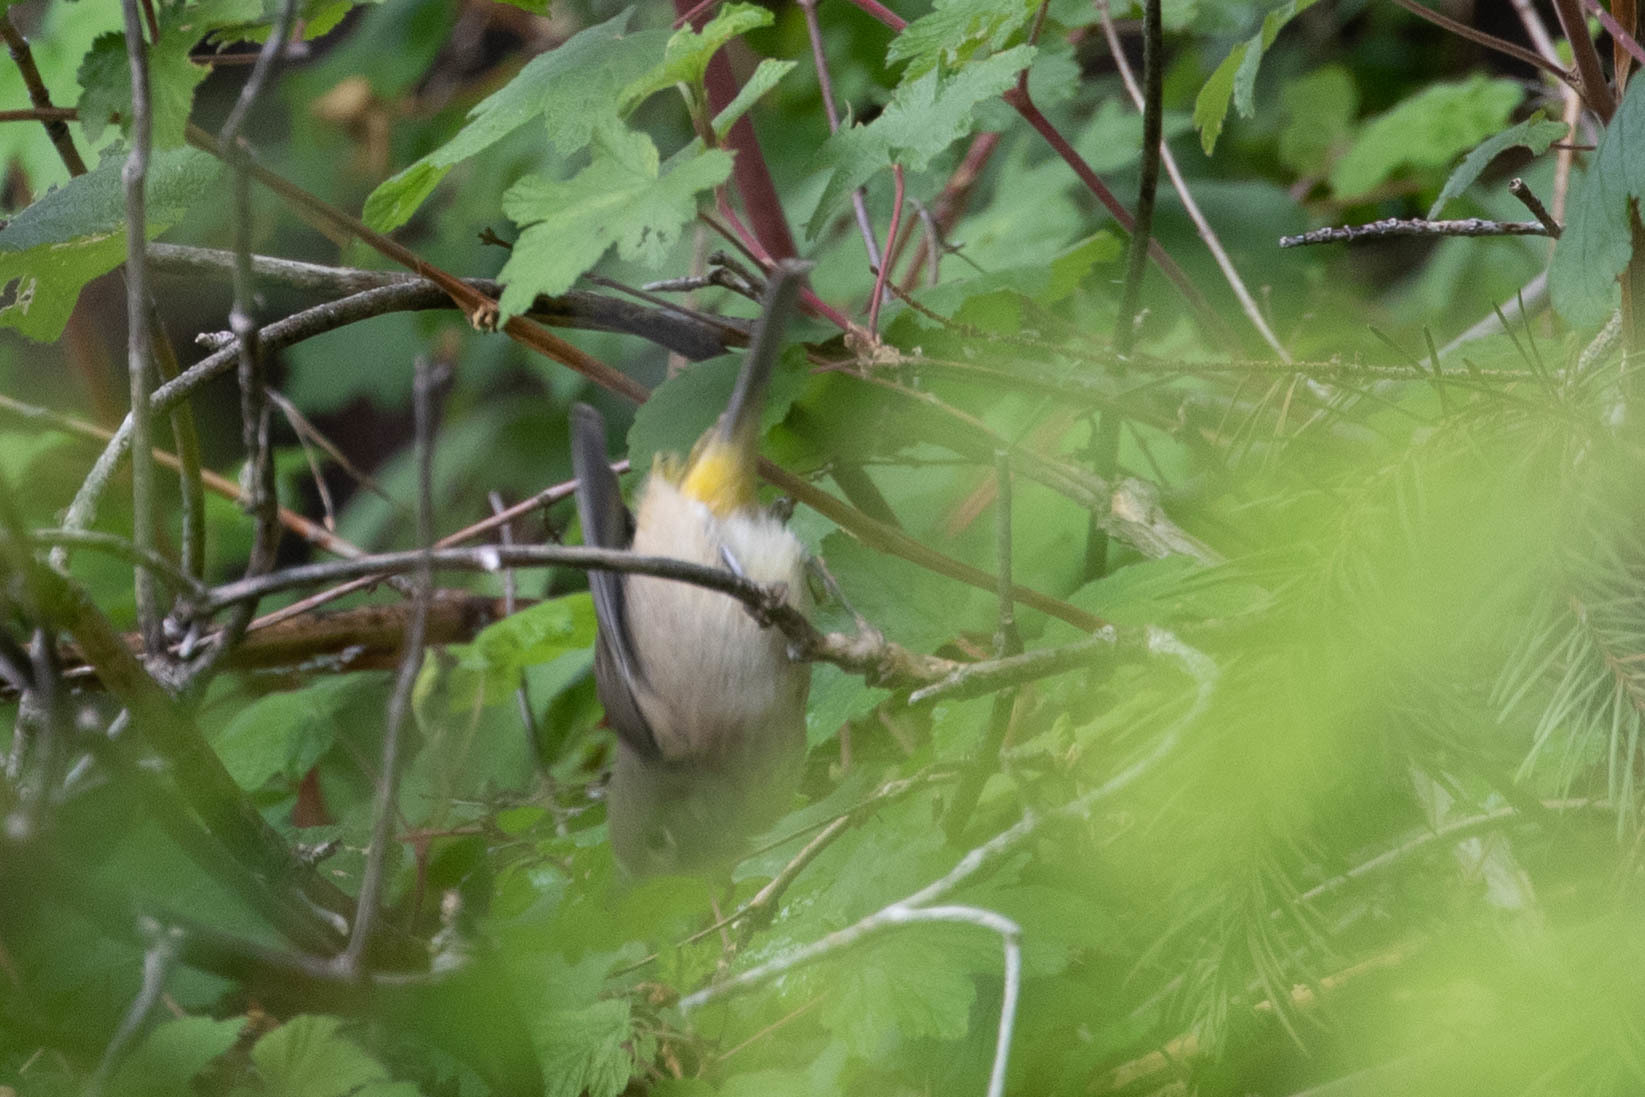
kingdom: Animalia
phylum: Chordata
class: Aves
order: Passeriformes
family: Parulidae
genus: Leiothlypis
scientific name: Leiothlypis virginiae
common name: Virginia's warbler
